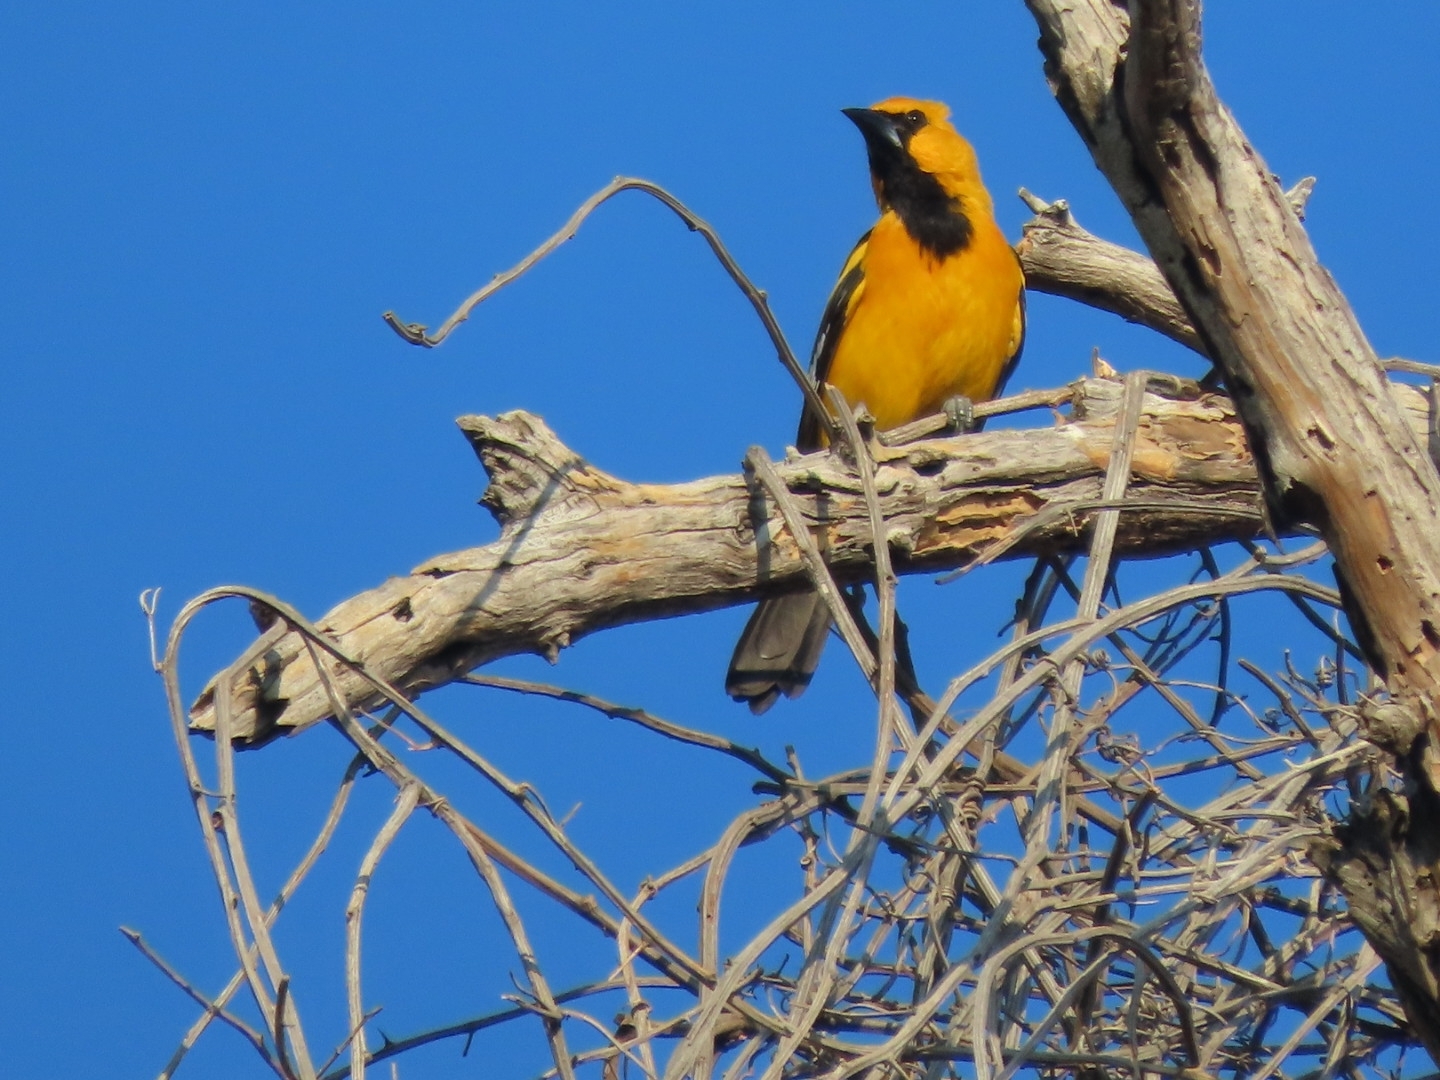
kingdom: Animalia
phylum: Chordata
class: Aves
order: Passeriformes
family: Icteridae
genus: Icterus
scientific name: Icterus gularis
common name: Altamira oriole
